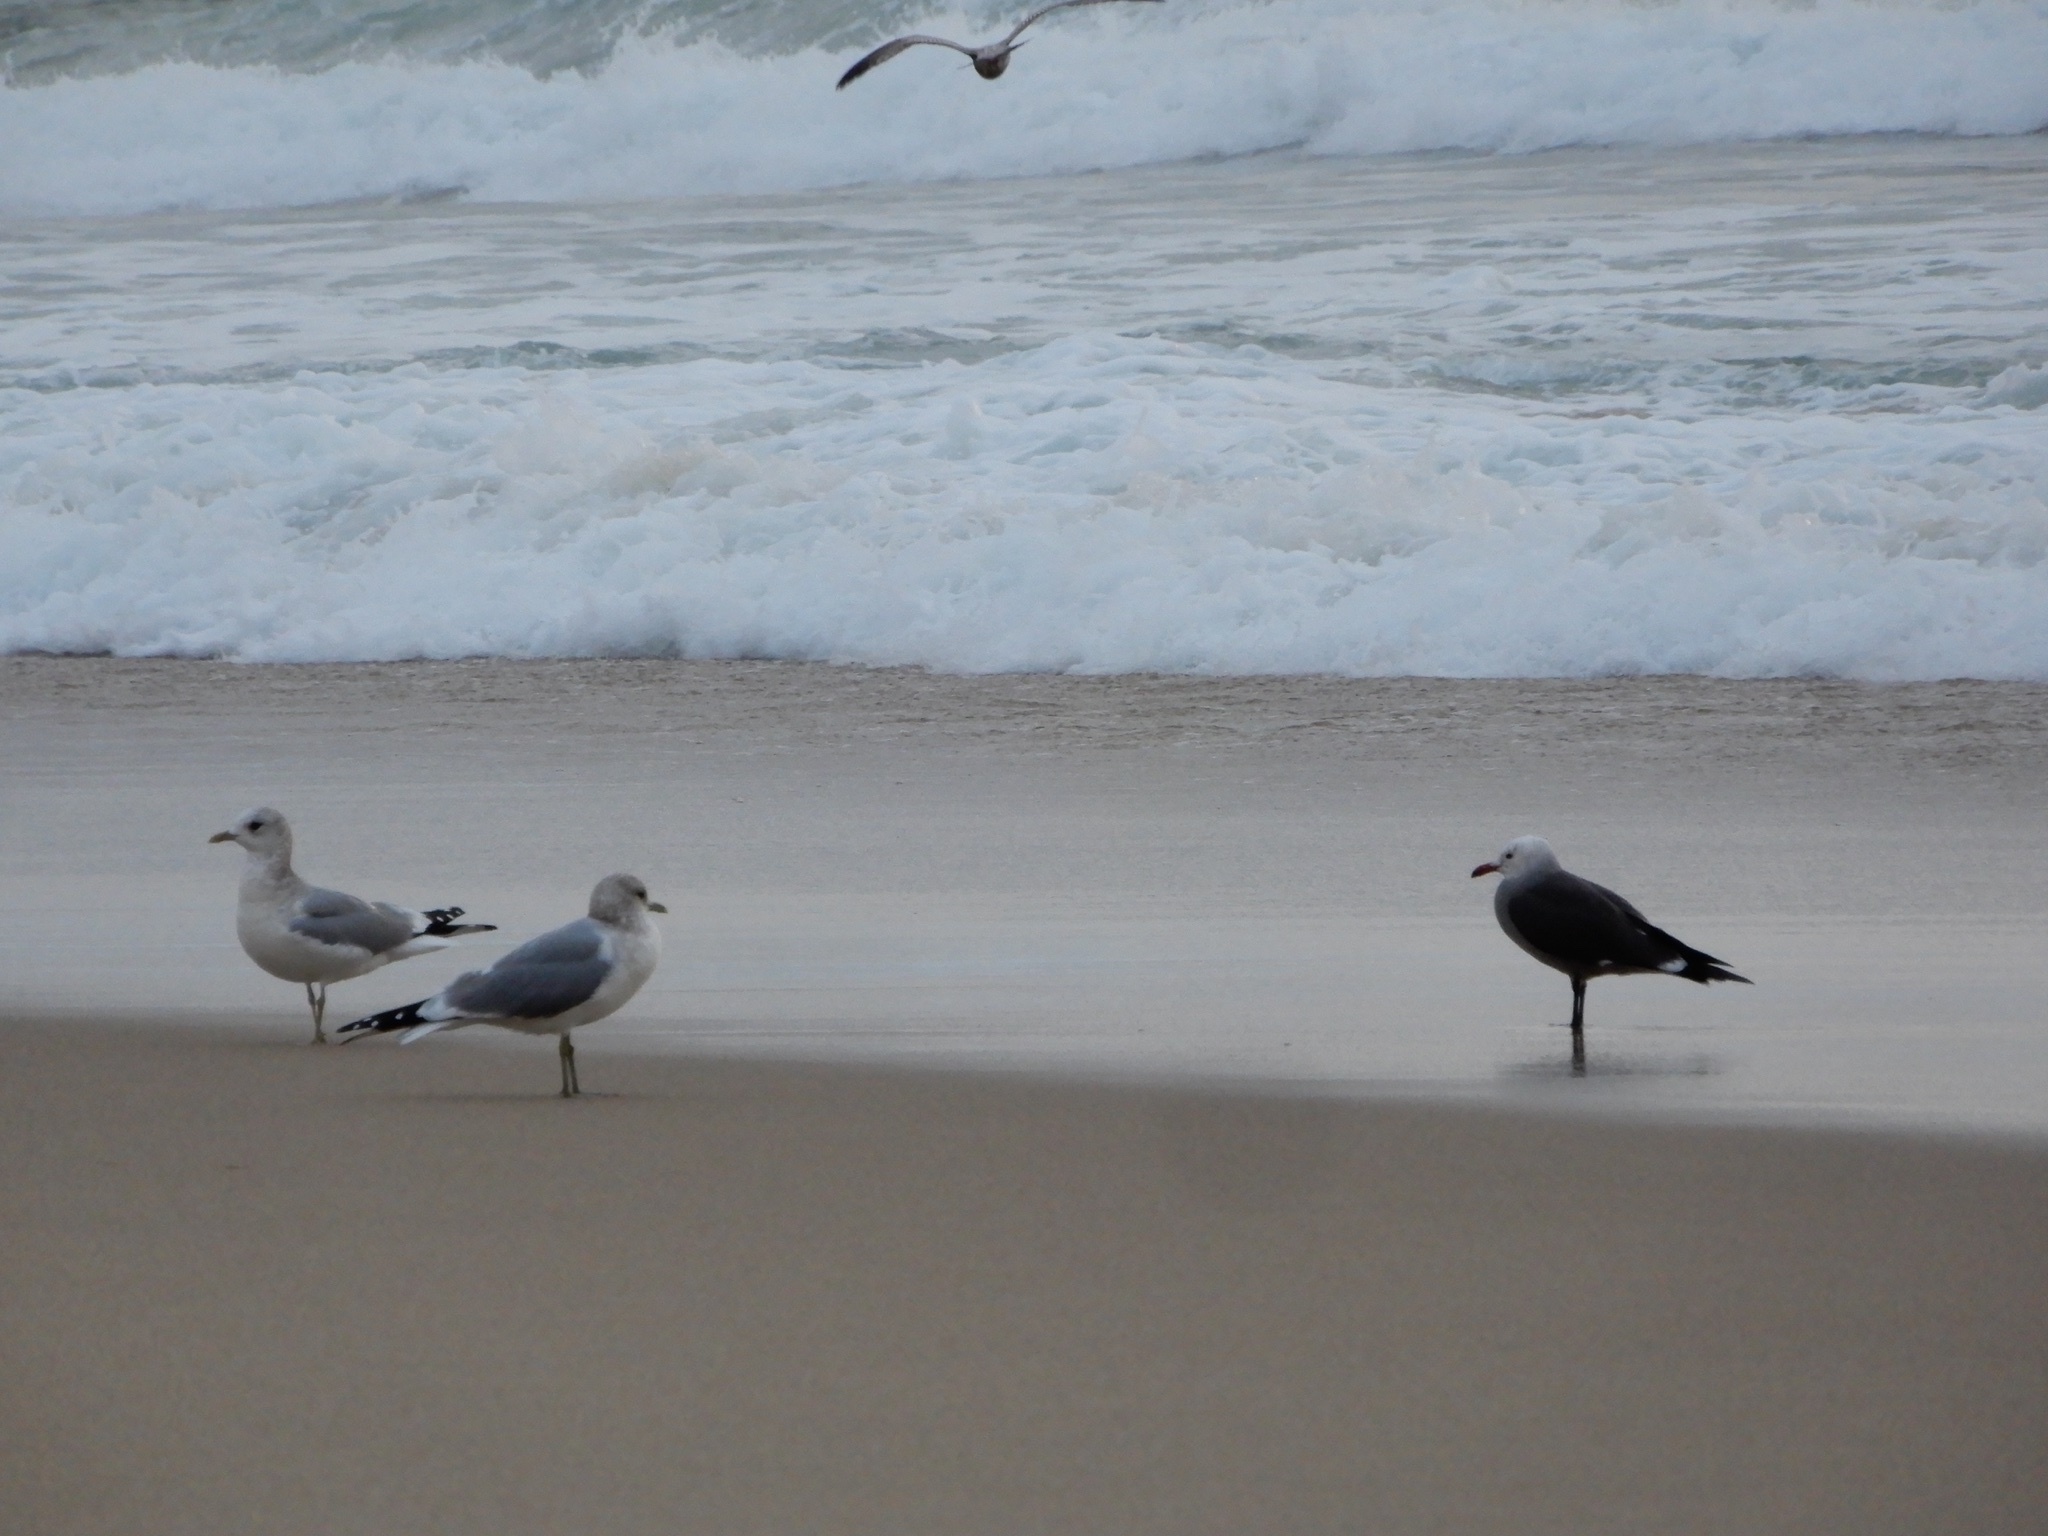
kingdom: Animalia
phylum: Chordata
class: Aves
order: Charadriiformes
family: Laridae
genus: Larus
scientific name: Larus heermanni
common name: Heermann's gull
